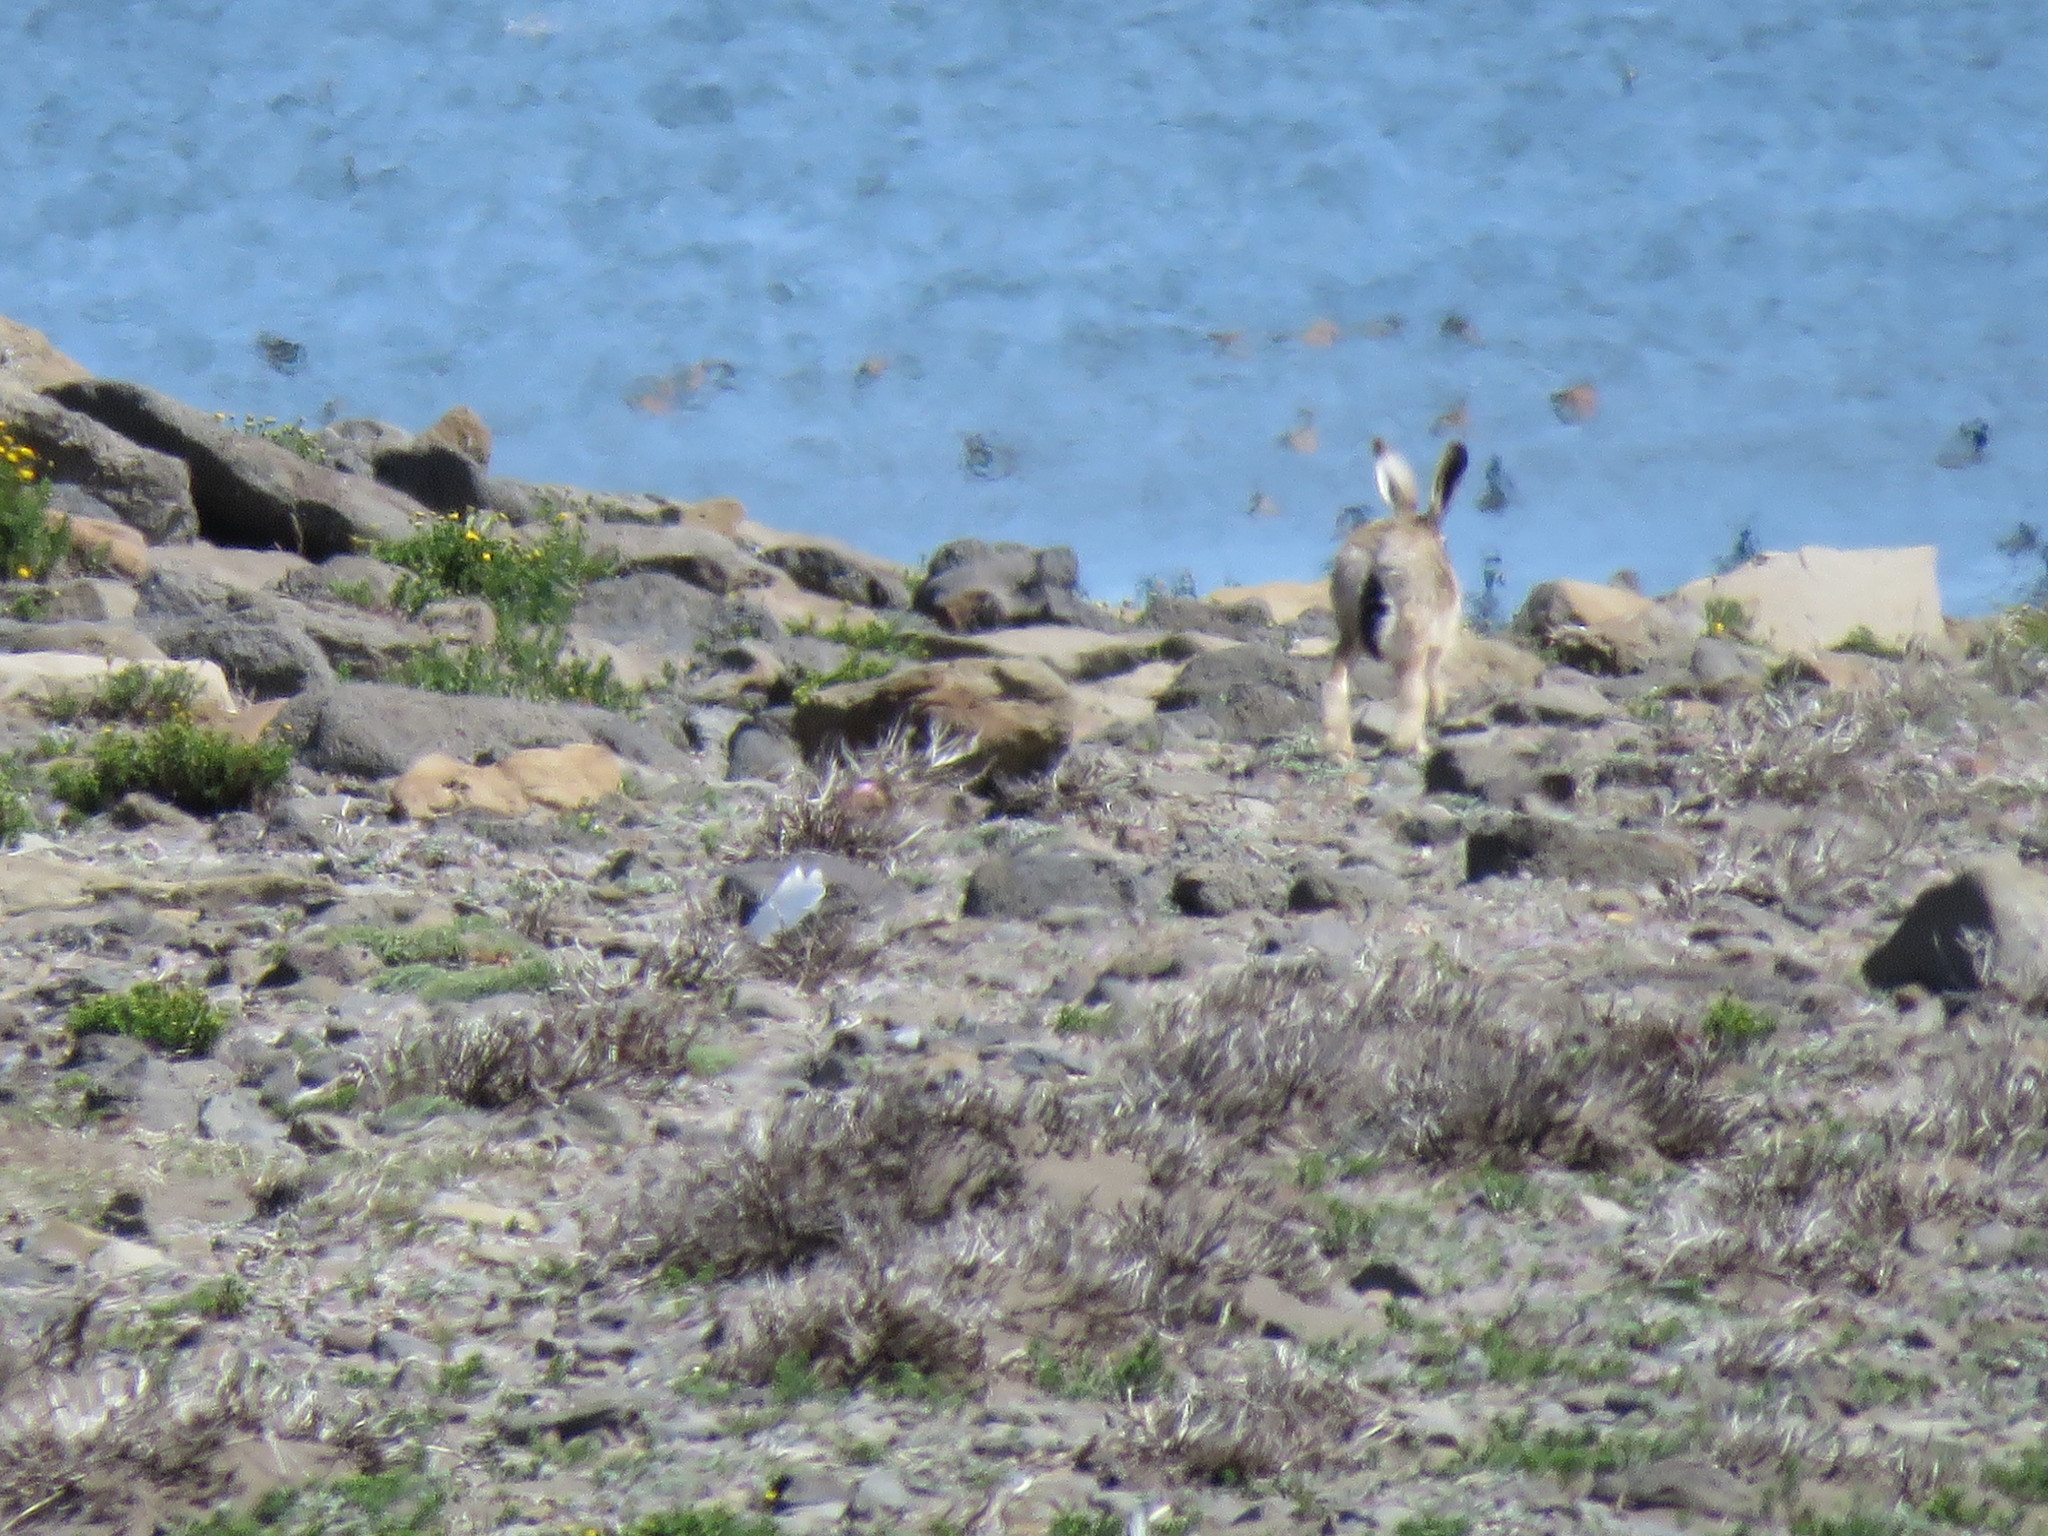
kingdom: Animalia
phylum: Chordata
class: Mammalia
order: Lagomorpha
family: Leporidae
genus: Lepus
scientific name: Lepus europaeus
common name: European hare
